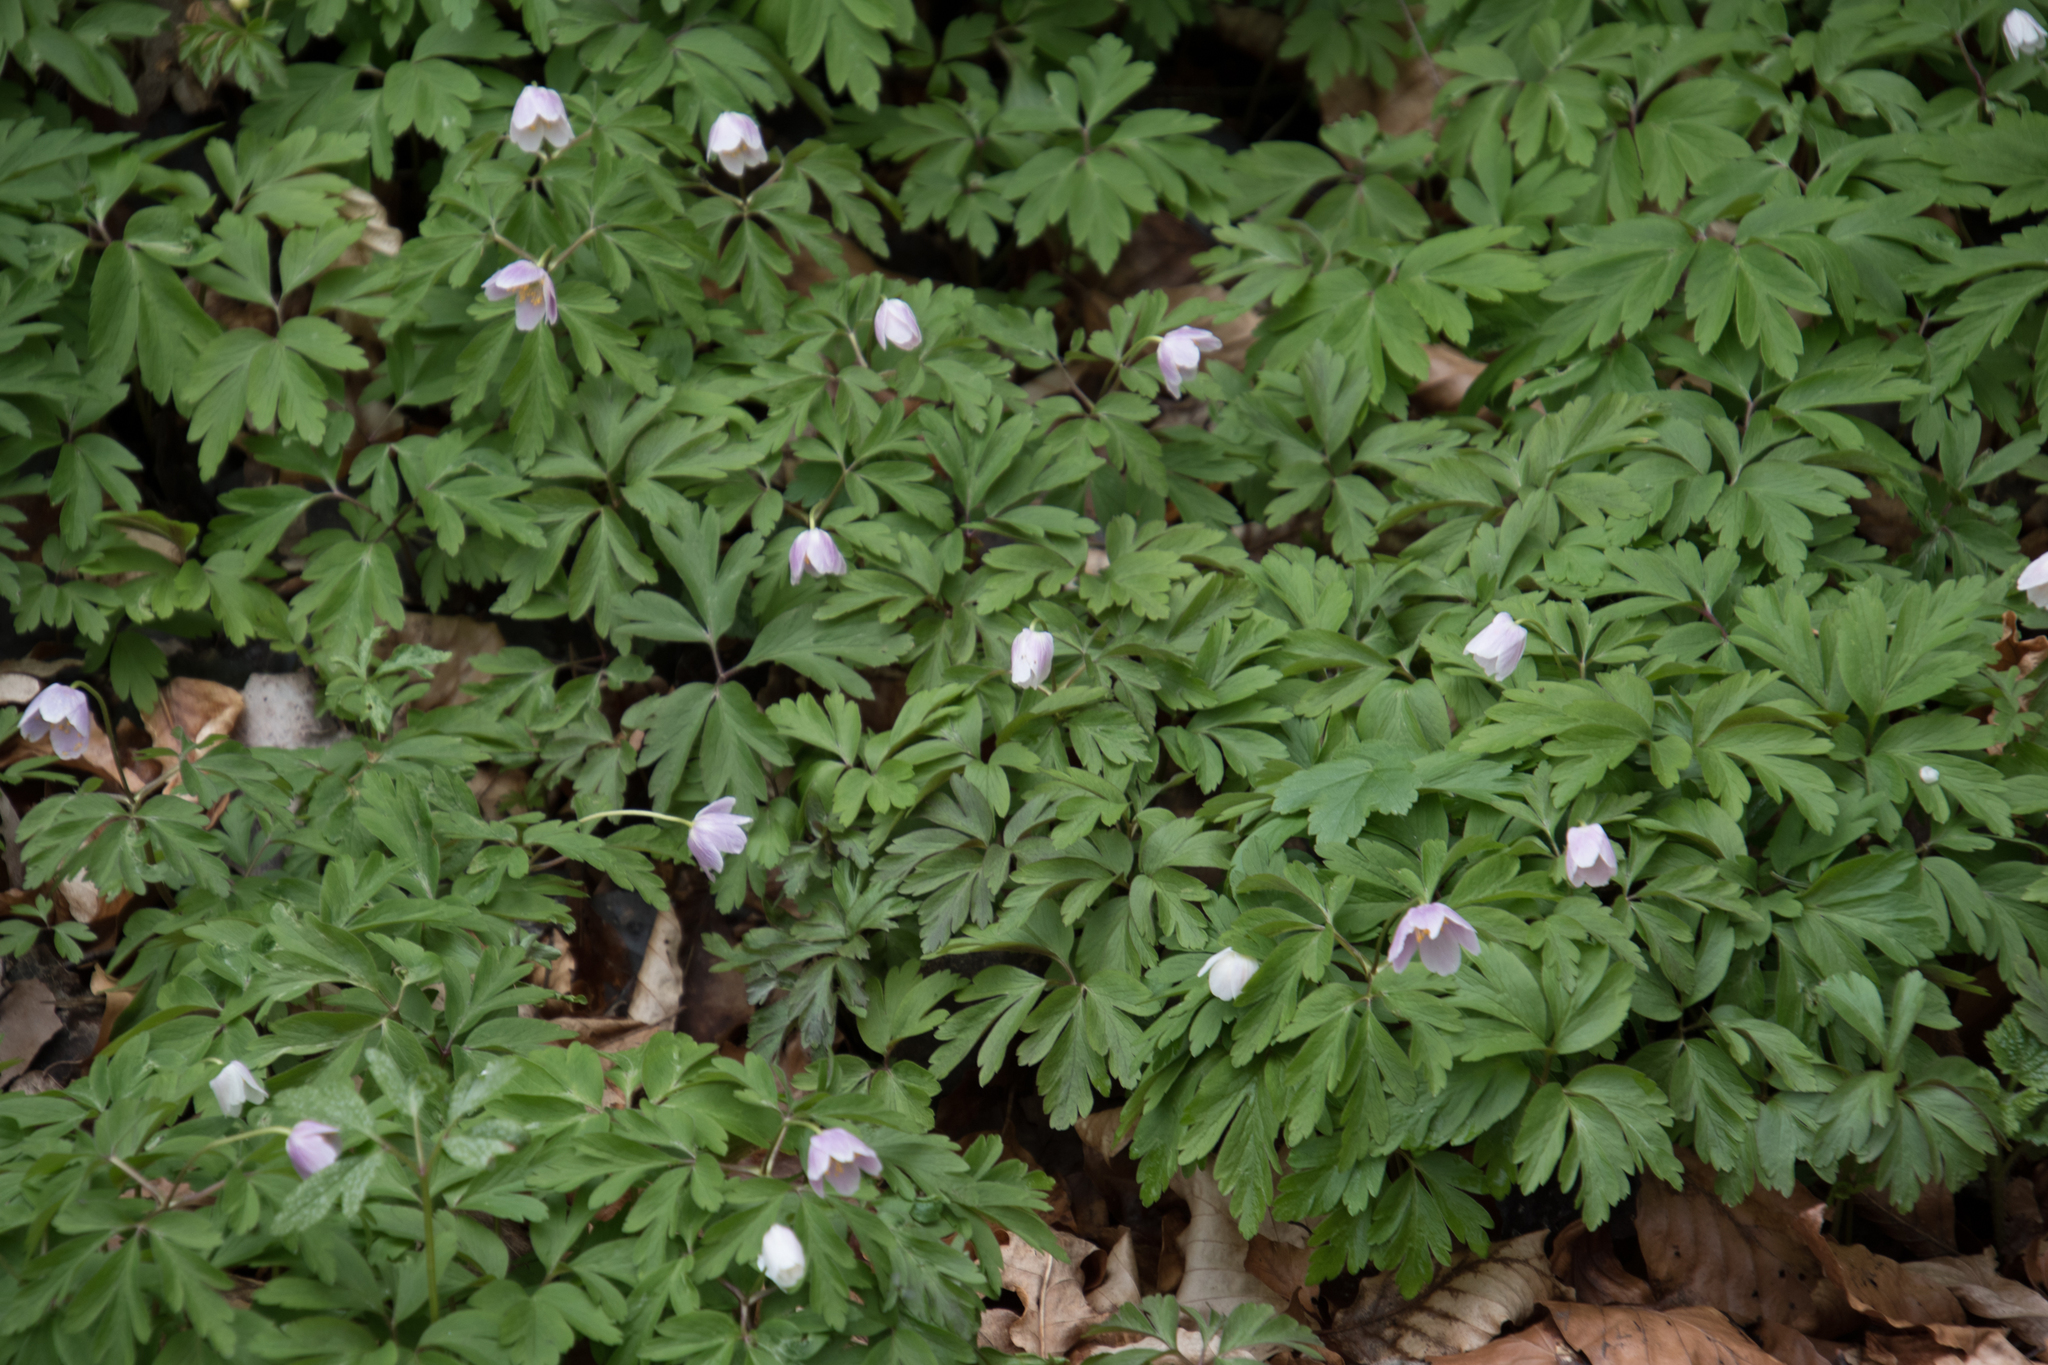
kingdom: Plantae
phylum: Tracheophyta
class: Magnoliopsida
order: Ranunculales
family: Ranunculaceae
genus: Anemone
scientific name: Anemone nemorosa
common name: Wood anemone
